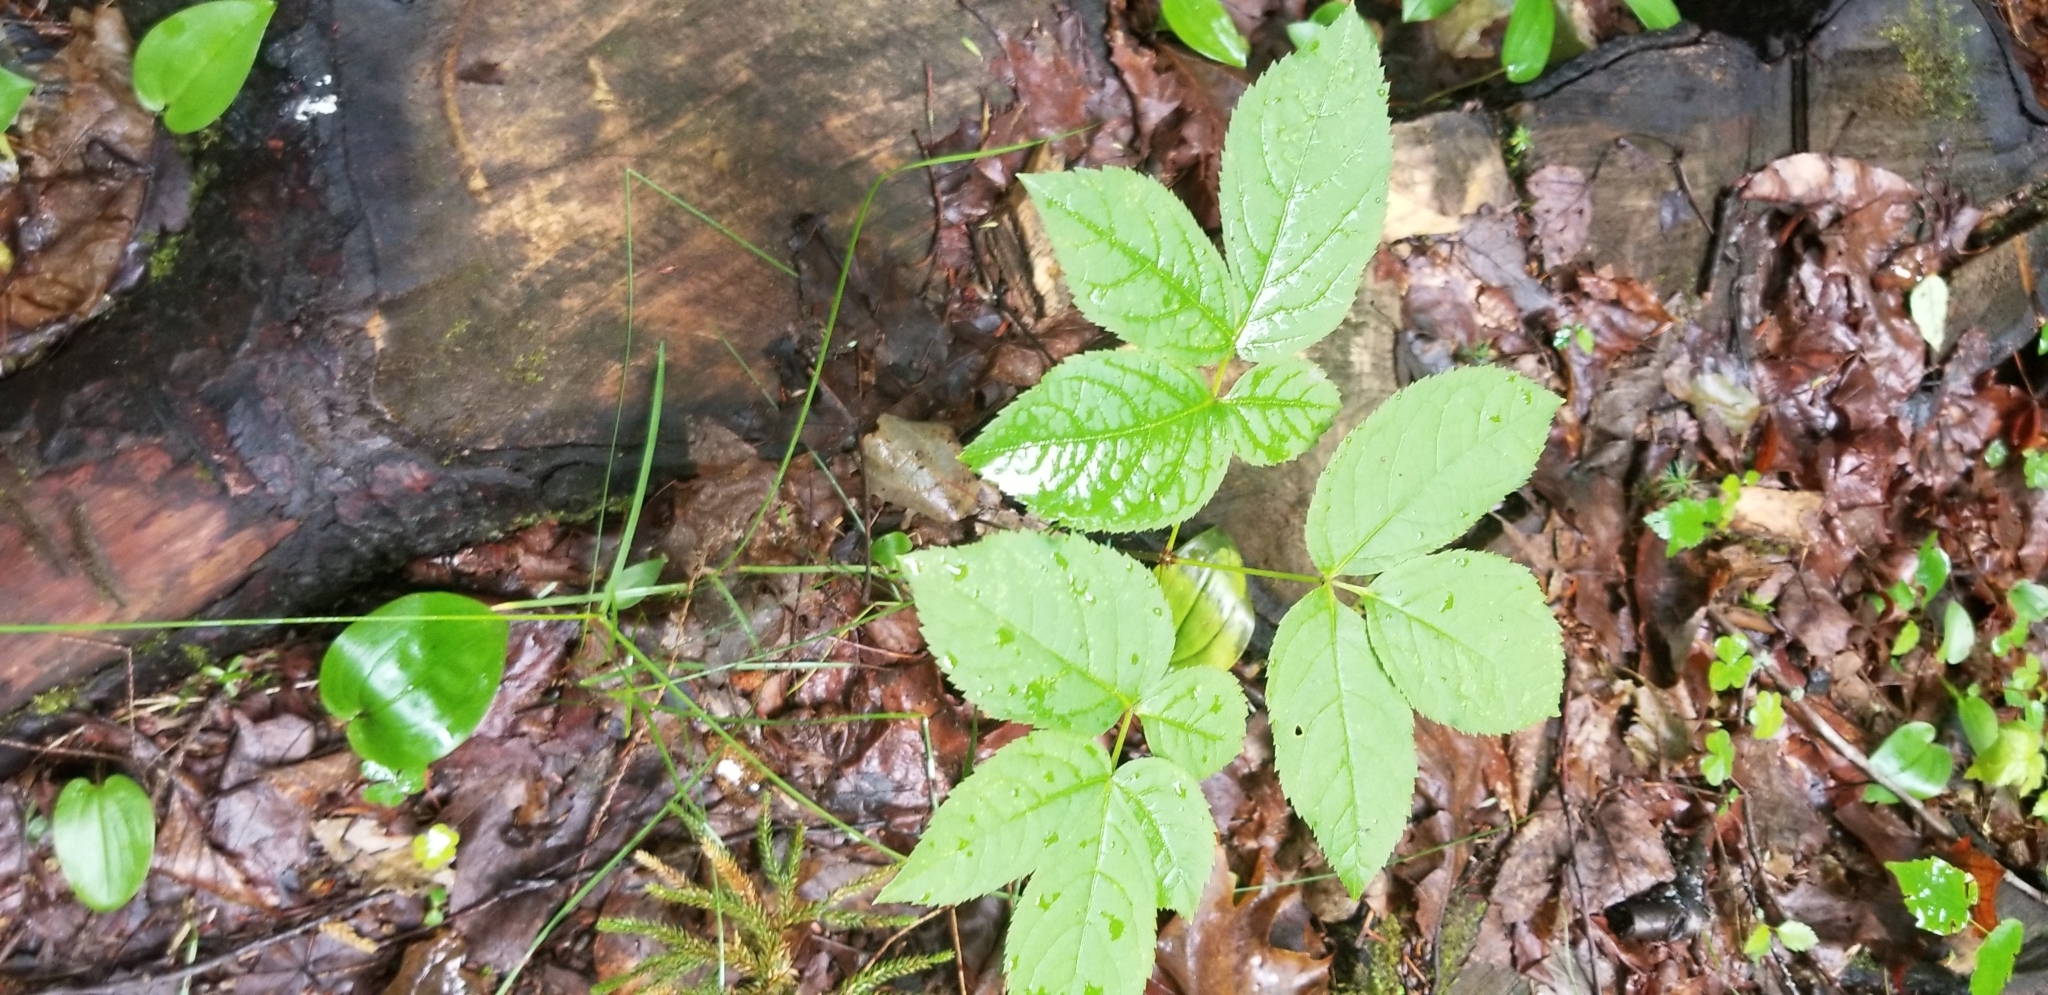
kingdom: Plantae
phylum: Tracheophyta
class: Magnoliopsida
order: Apiales
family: Araliaceae
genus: Aralia
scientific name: Aralia nudicaulis
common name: Wild sarsaparilla
